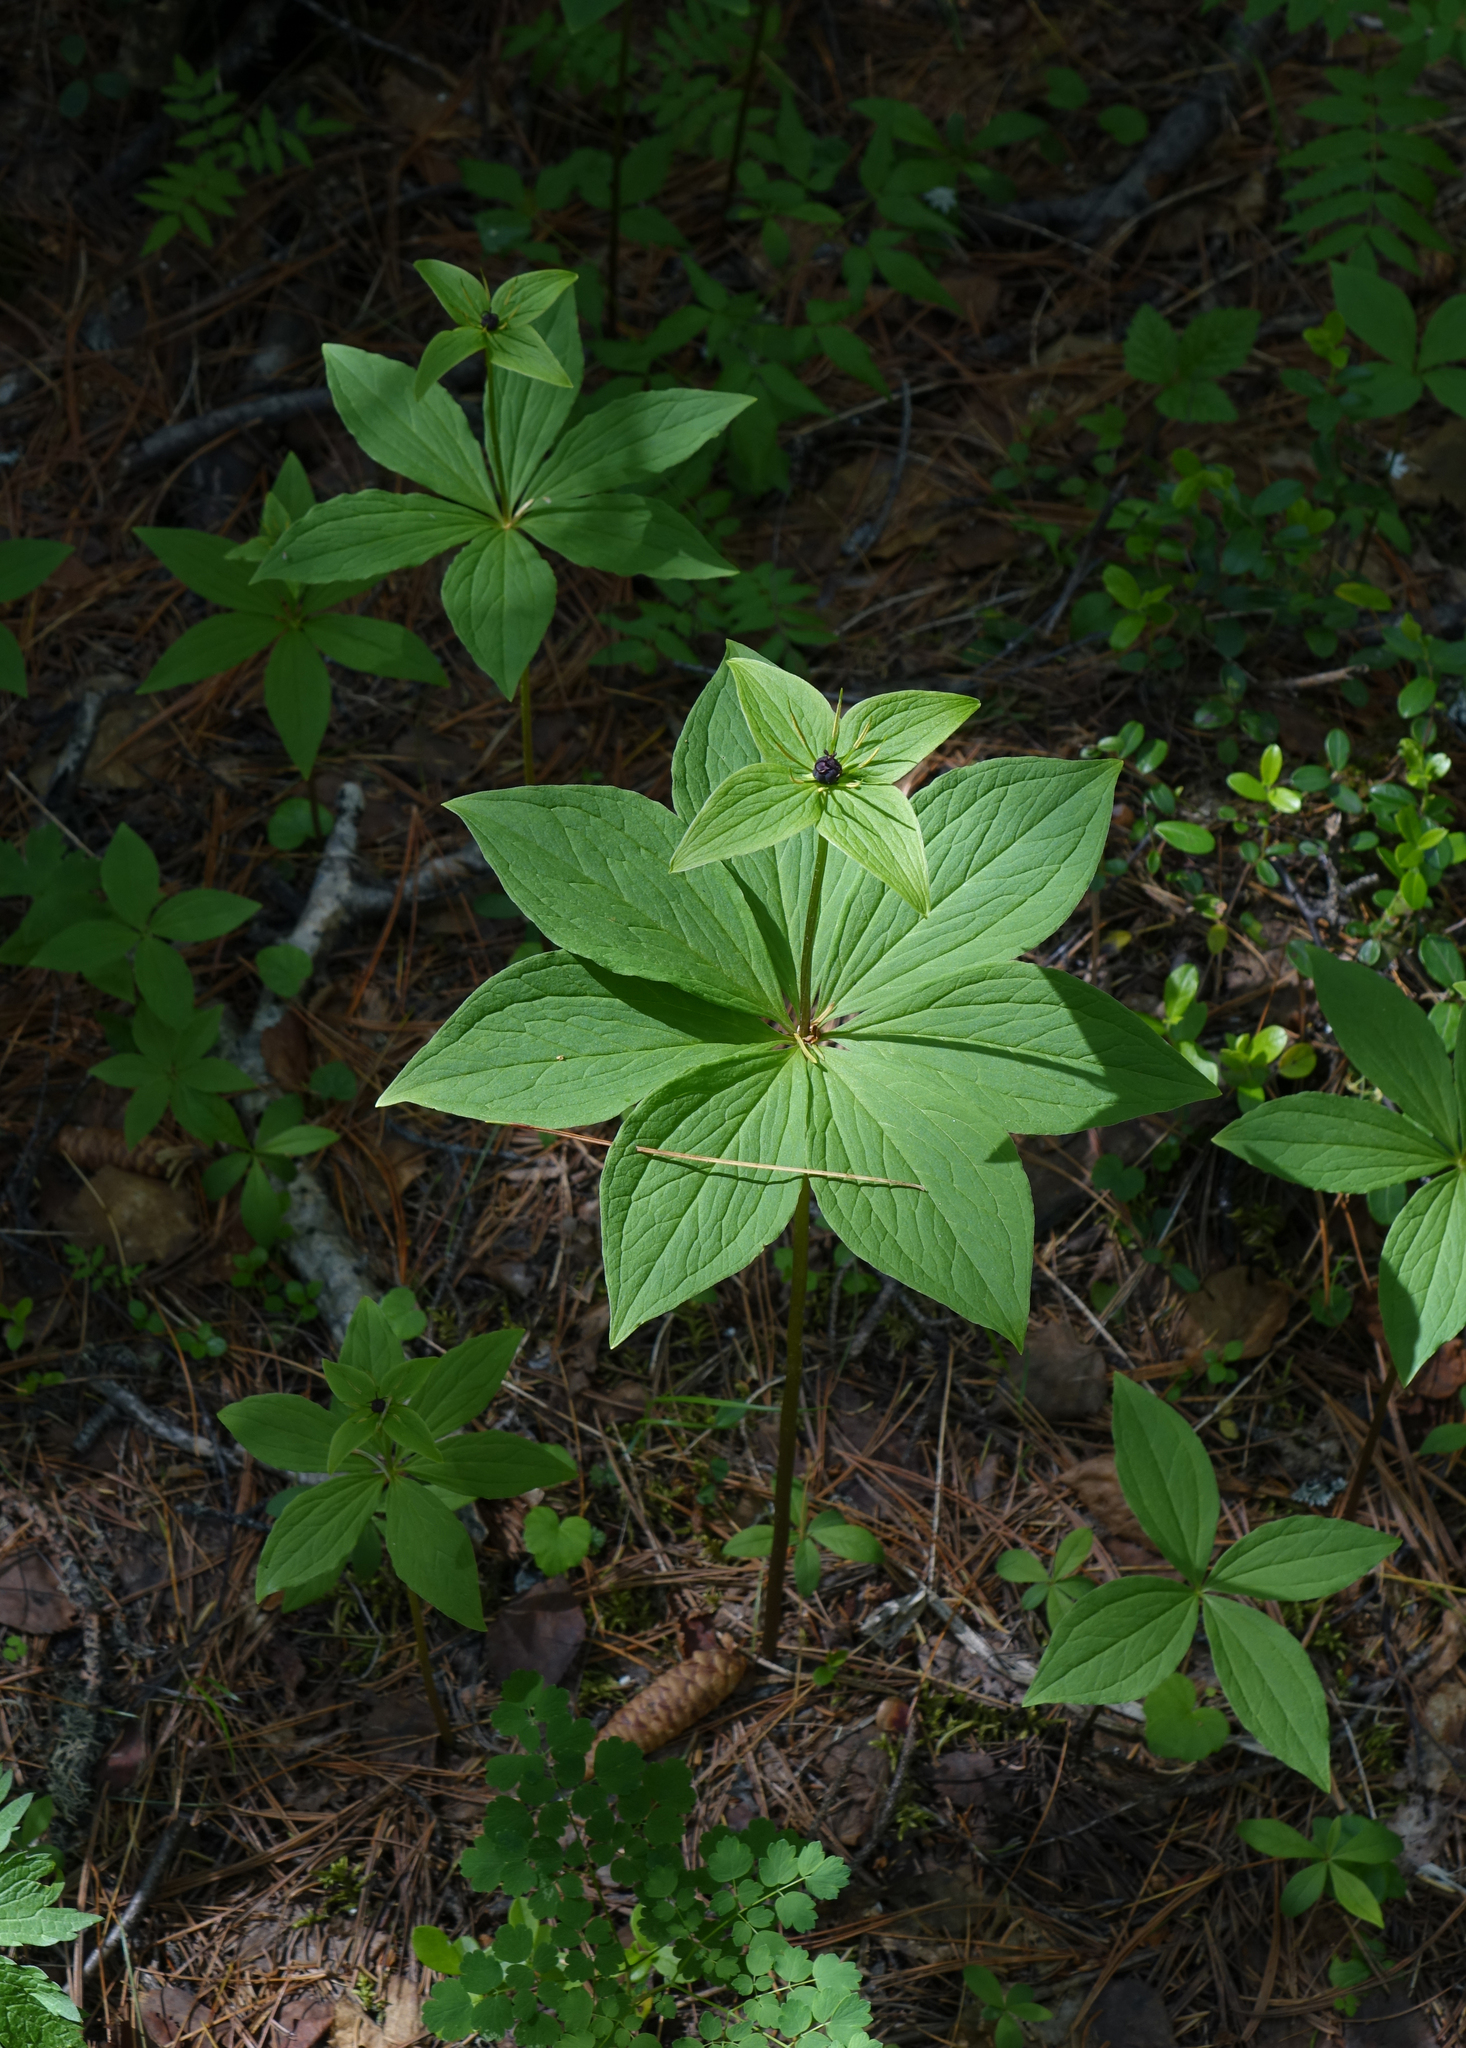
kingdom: Plantae
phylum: Tracheophyta
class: Liliopsida
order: Liliales
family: Melanthiaceae
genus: Paris
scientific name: Paris verticillata
